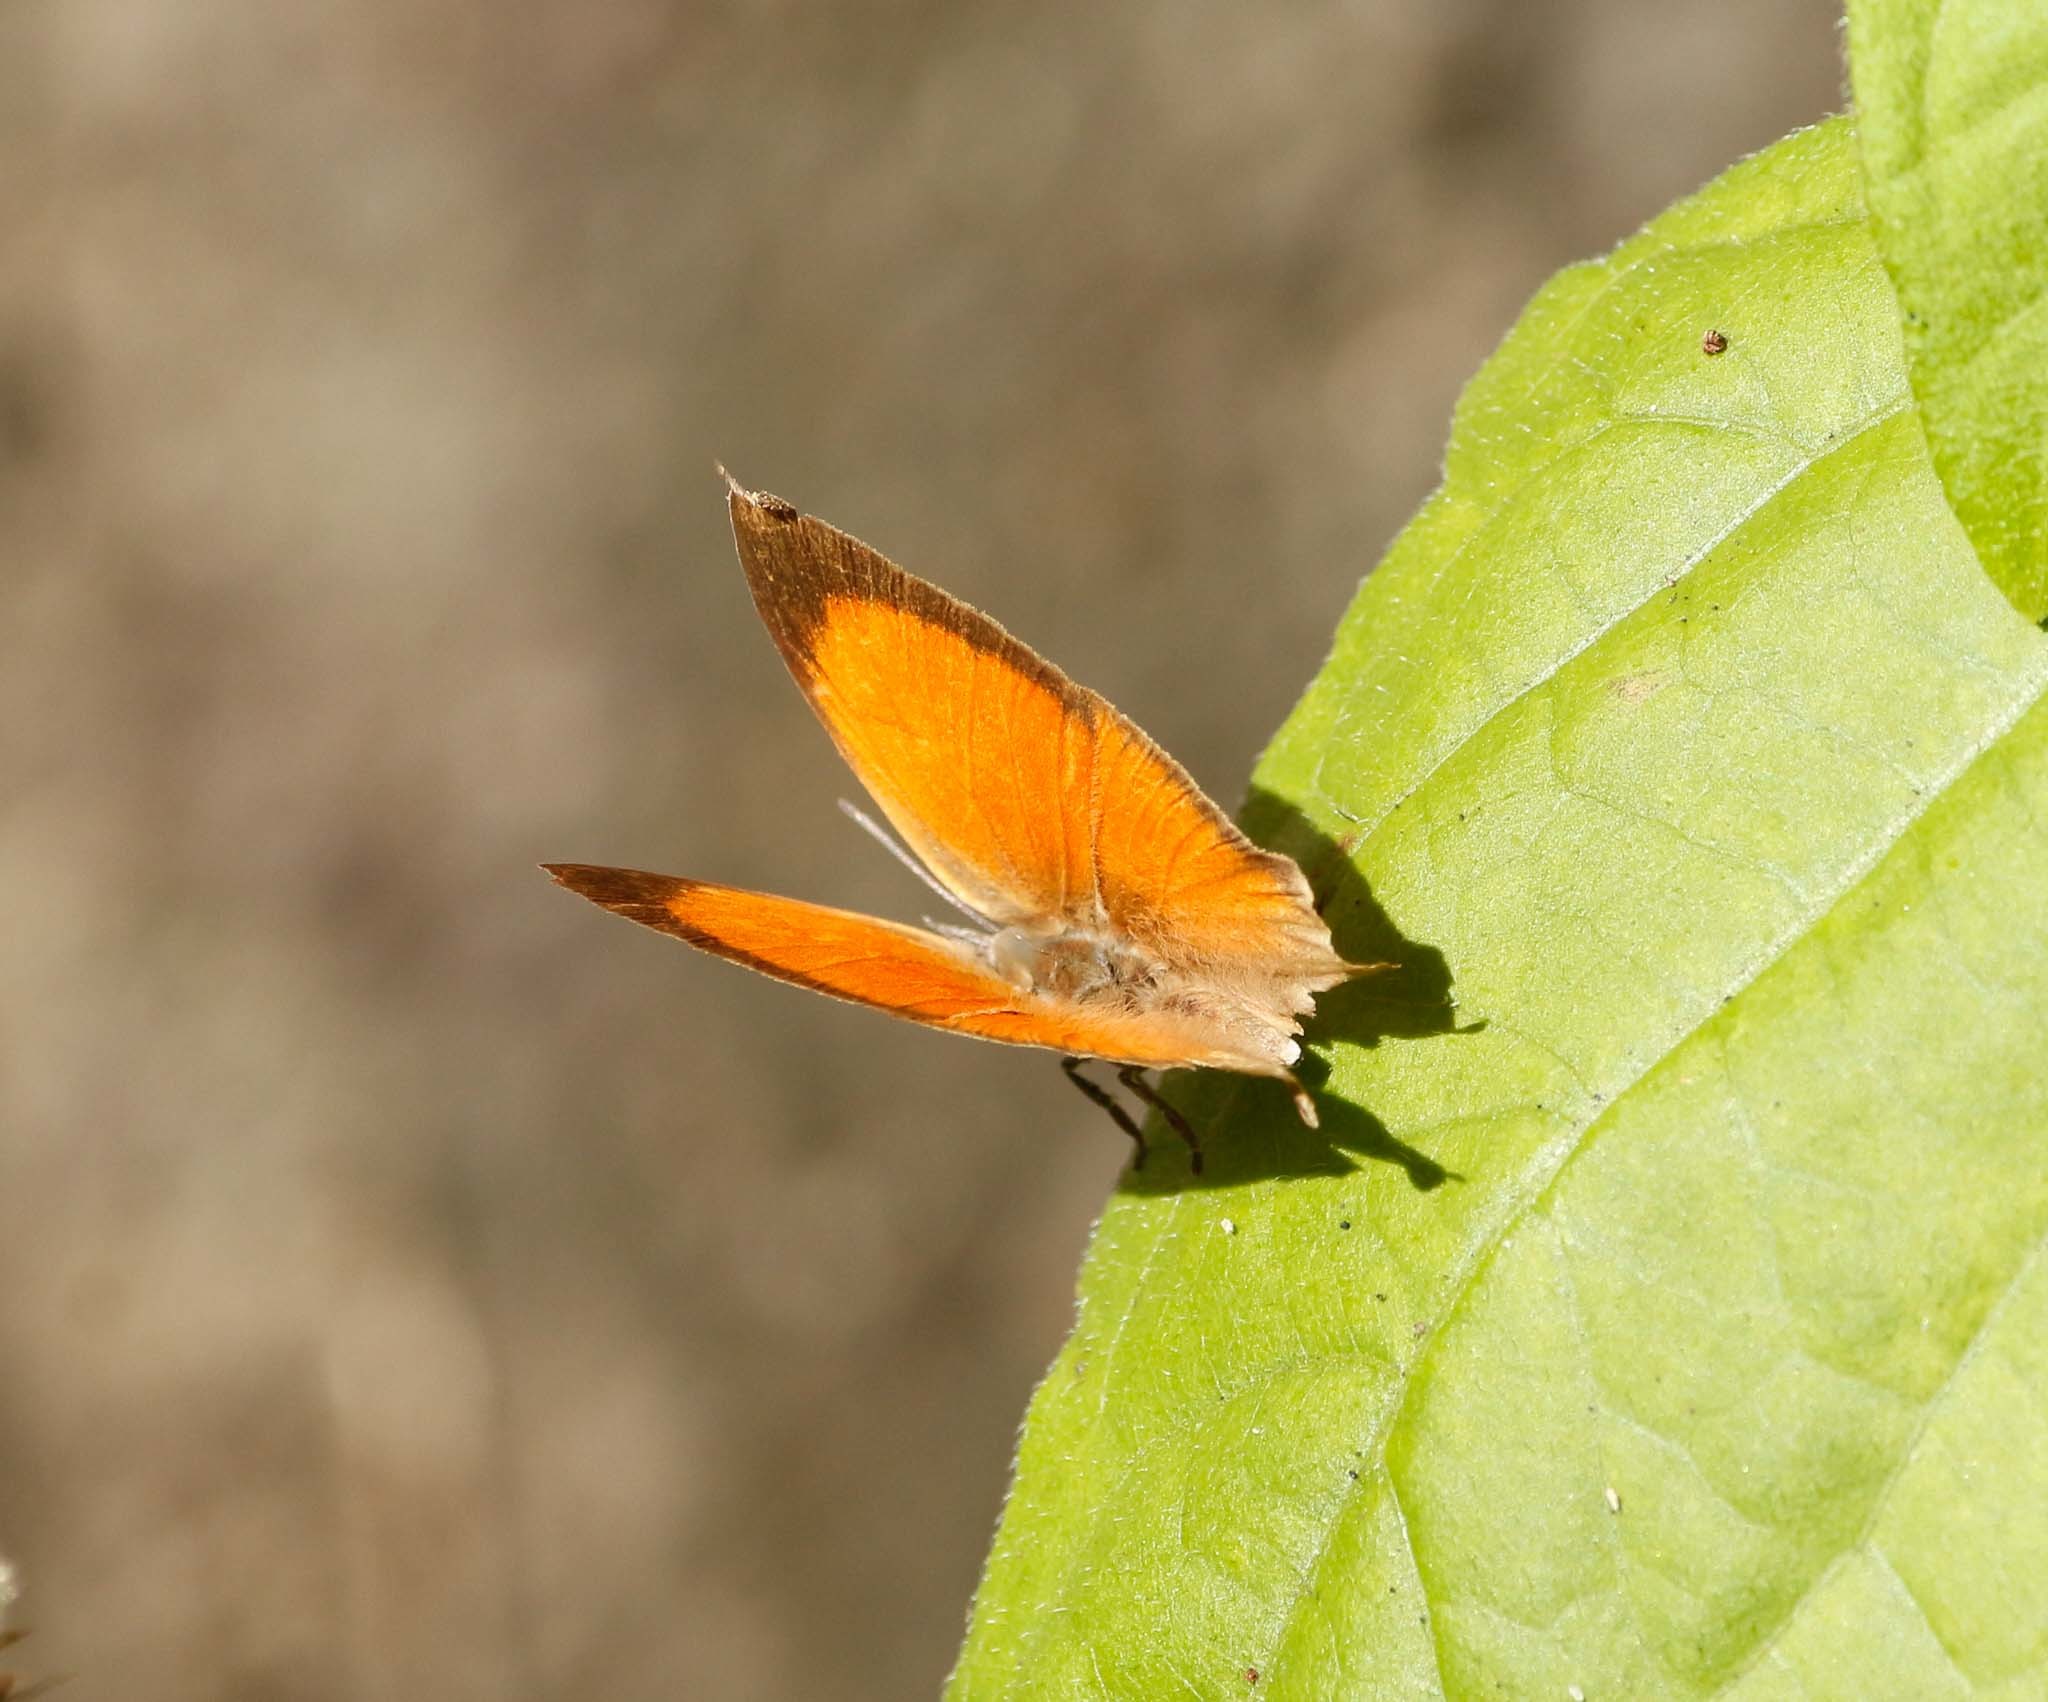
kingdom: Animalia
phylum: Arthropoda
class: Insecta
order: Lepidoptera
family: Lycaenidae
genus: Loxura
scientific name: Loxura atymnus
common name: Common yamfly
